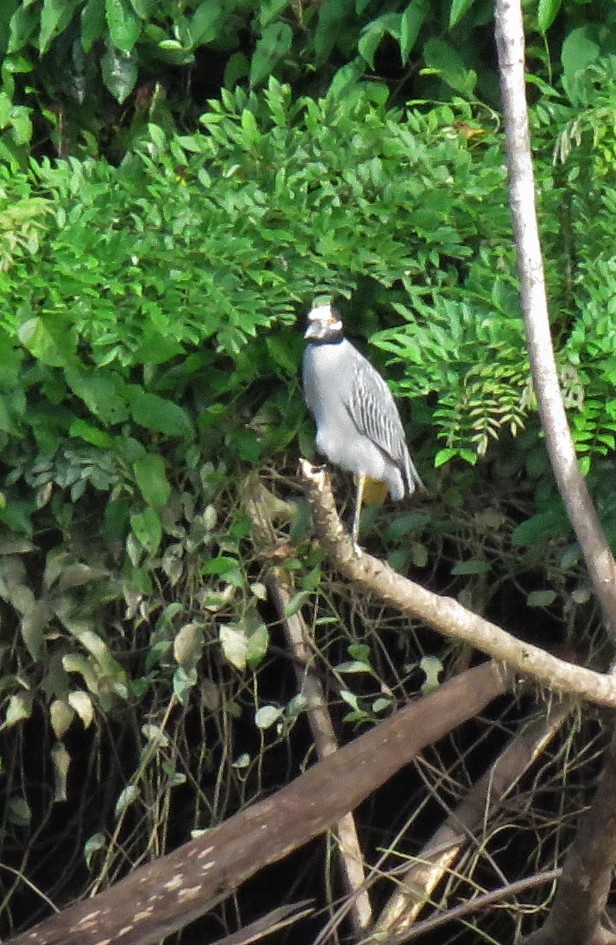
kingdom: Animalia
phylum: Chordata
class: Aves
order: Pelecaniformes
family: Ardeidae
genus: Nyctanassa
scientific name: Nyctanassa violacea
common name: Yellow-crowned night heron
